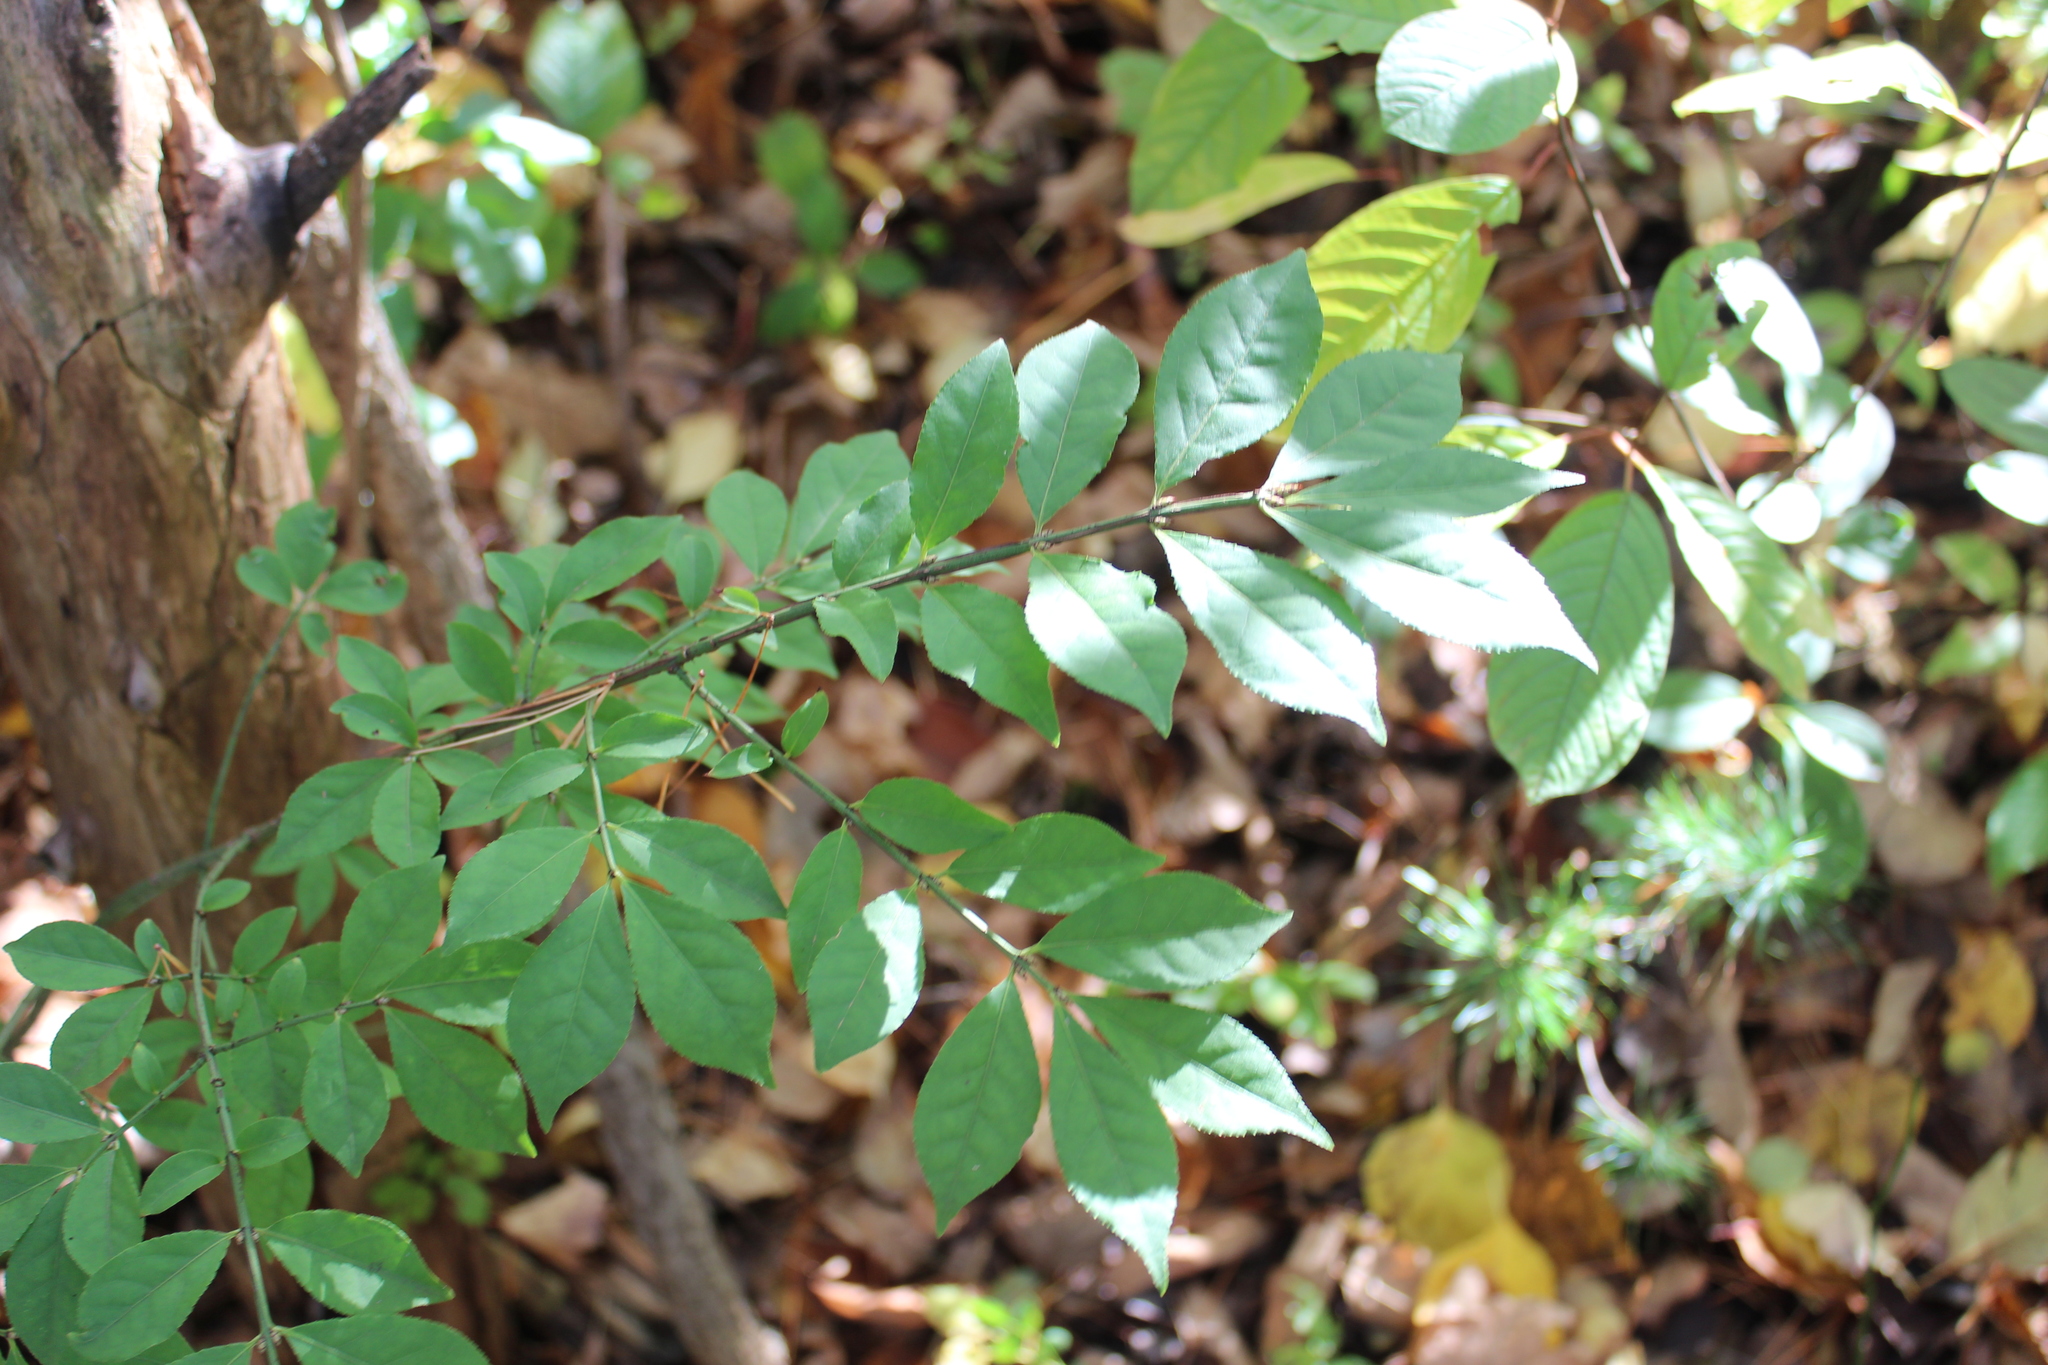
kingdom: Plantae
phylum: Tracheophyta
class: Magnoliopsida
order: Celastrales
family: Celastraceae
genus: Euonymus
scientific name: Euonymus alatus
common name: Winged euonymus
